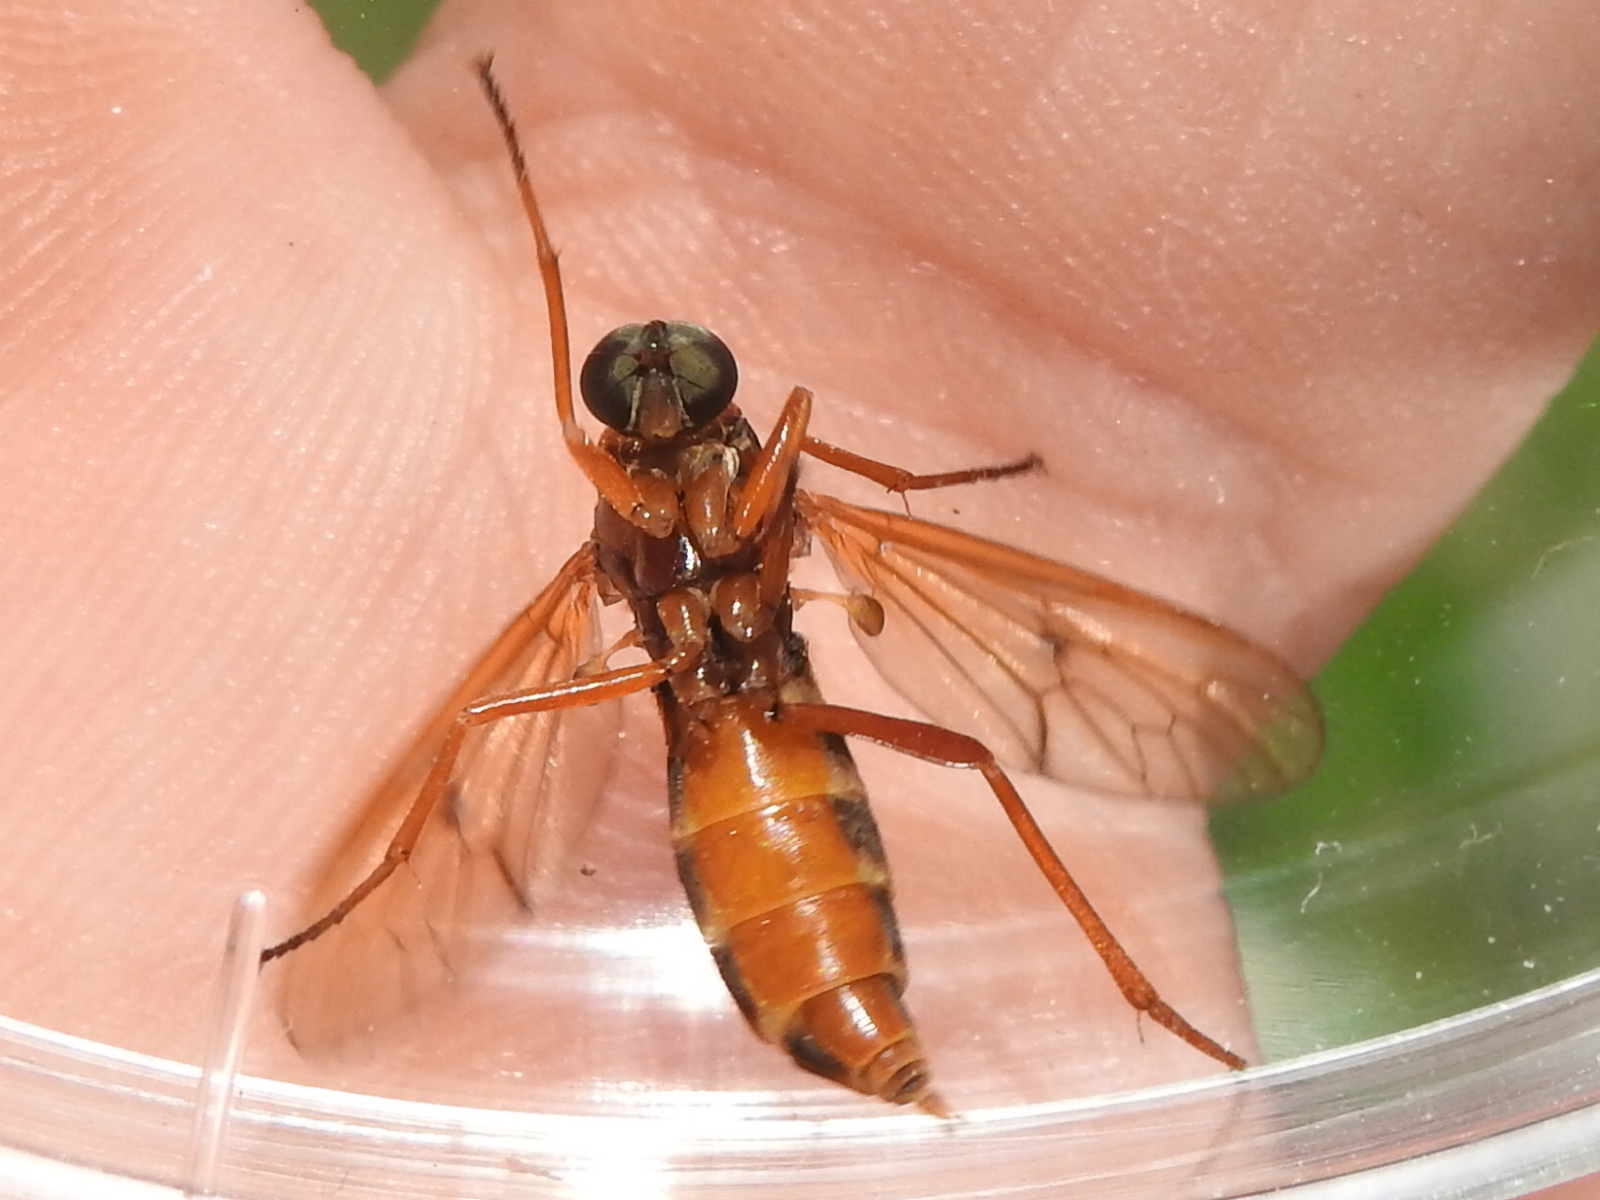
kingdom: Animalia
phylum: Arthropoda
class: Insecta
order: Diptera
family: Xylophagidae
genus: Dialysis
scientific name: Dialysis dispar
